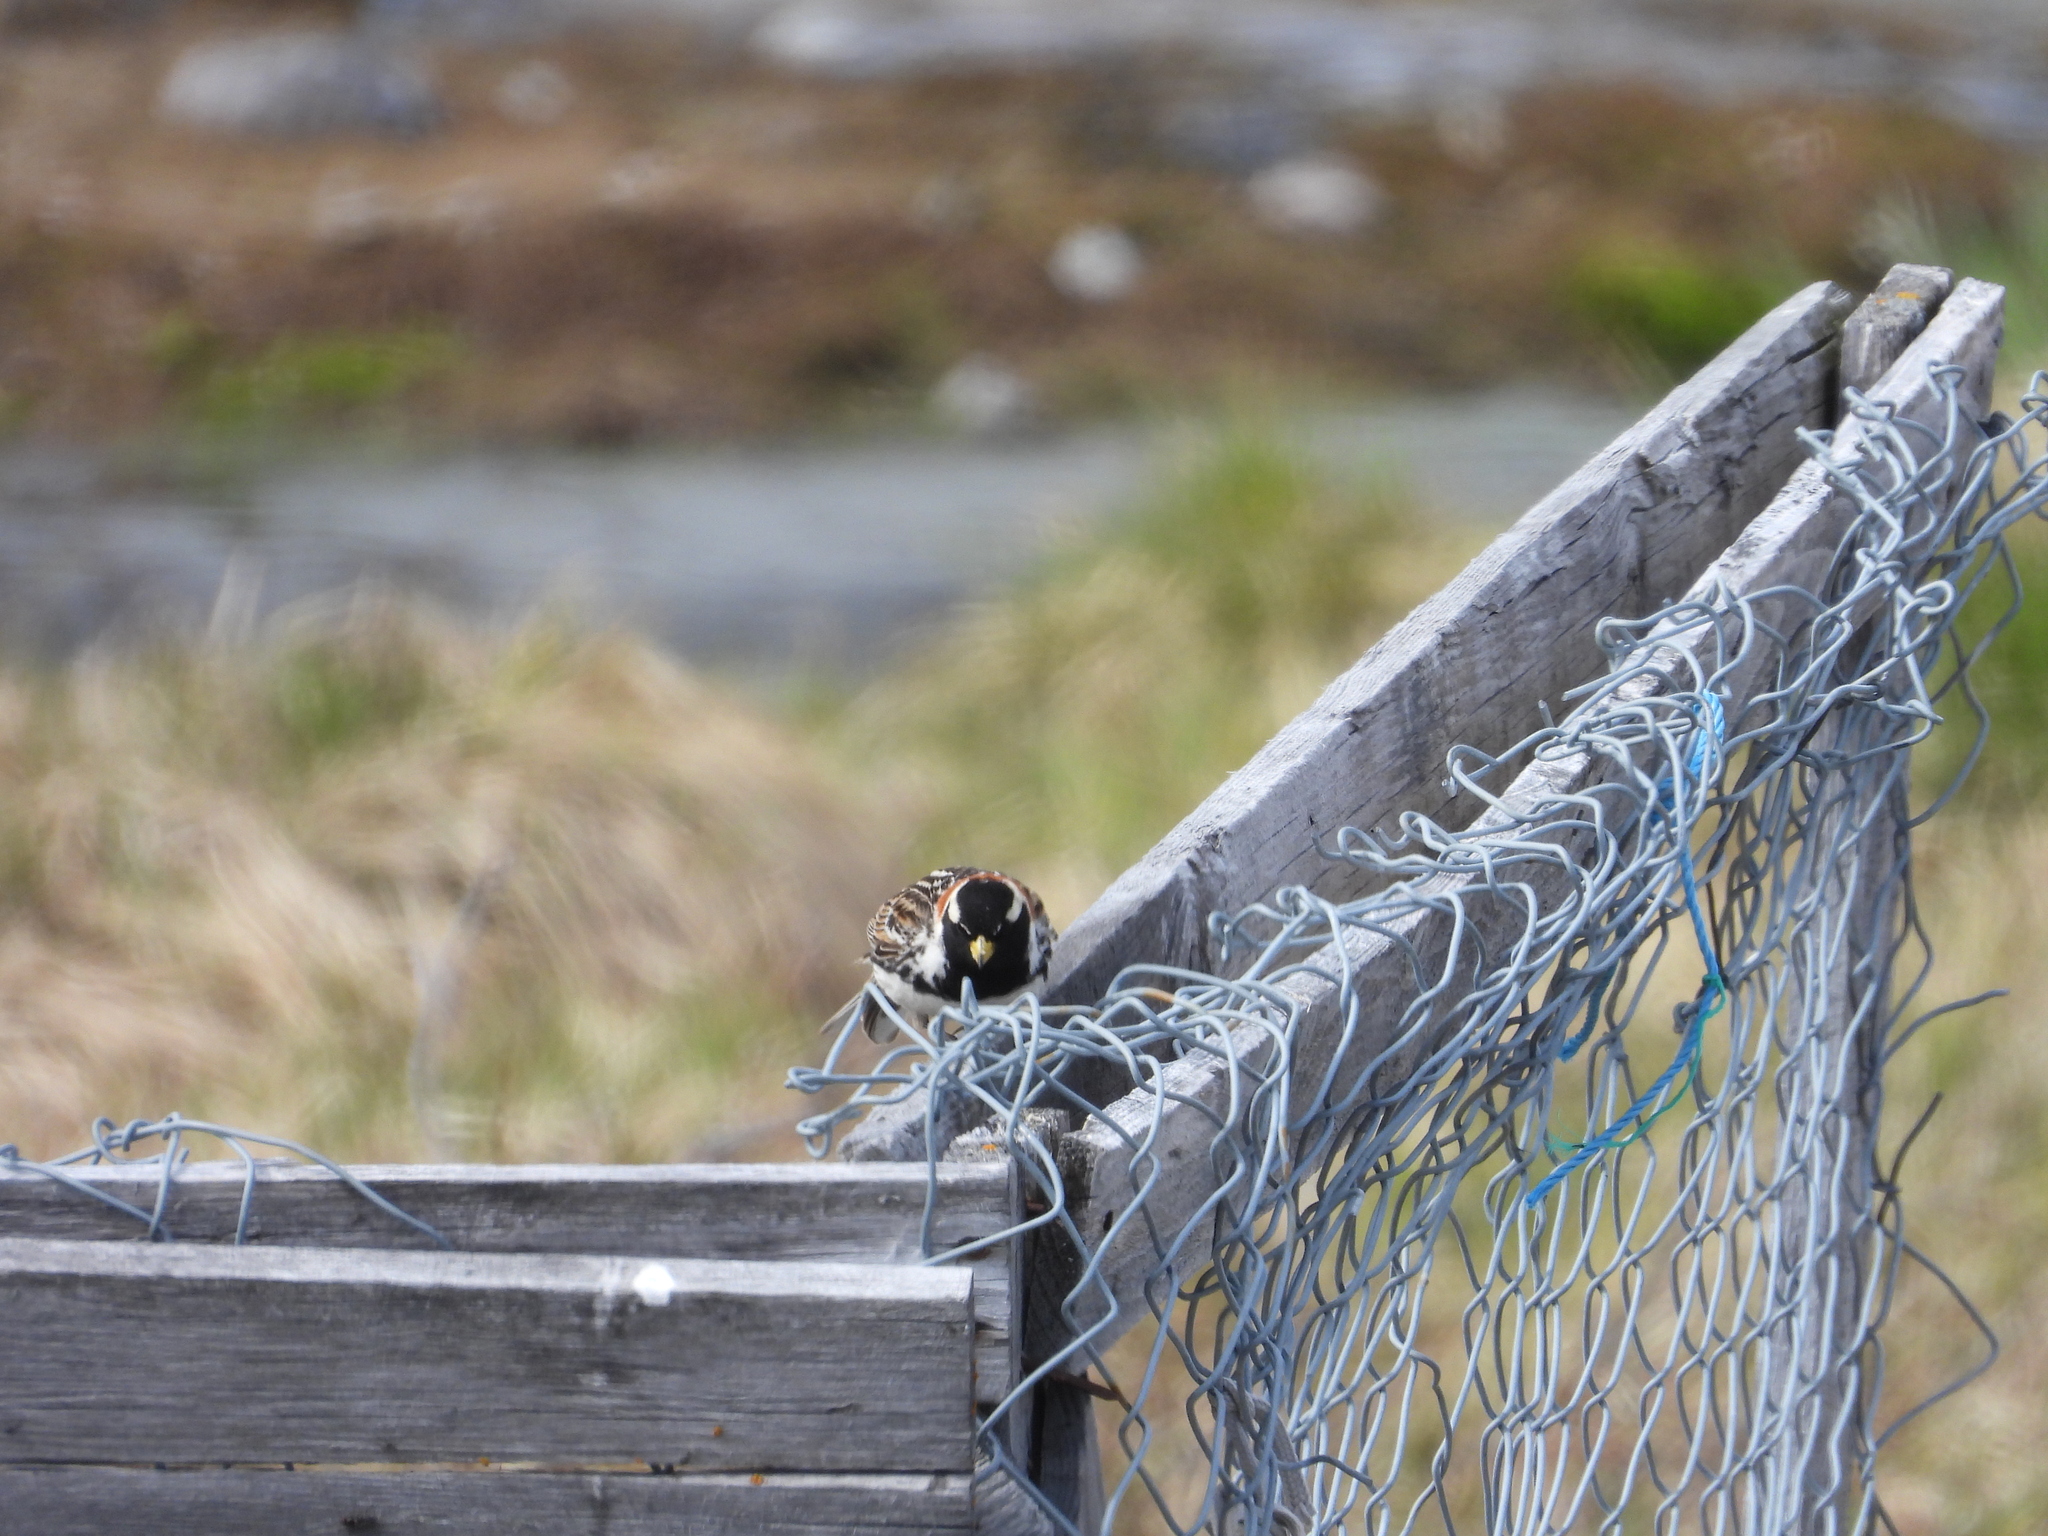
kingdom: Animalia
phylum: Chordata
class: Aves
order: Passeriformes
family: Calcariidae
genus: Calcarius
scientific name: Calcarius lapponicus
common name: Lapland longspur
